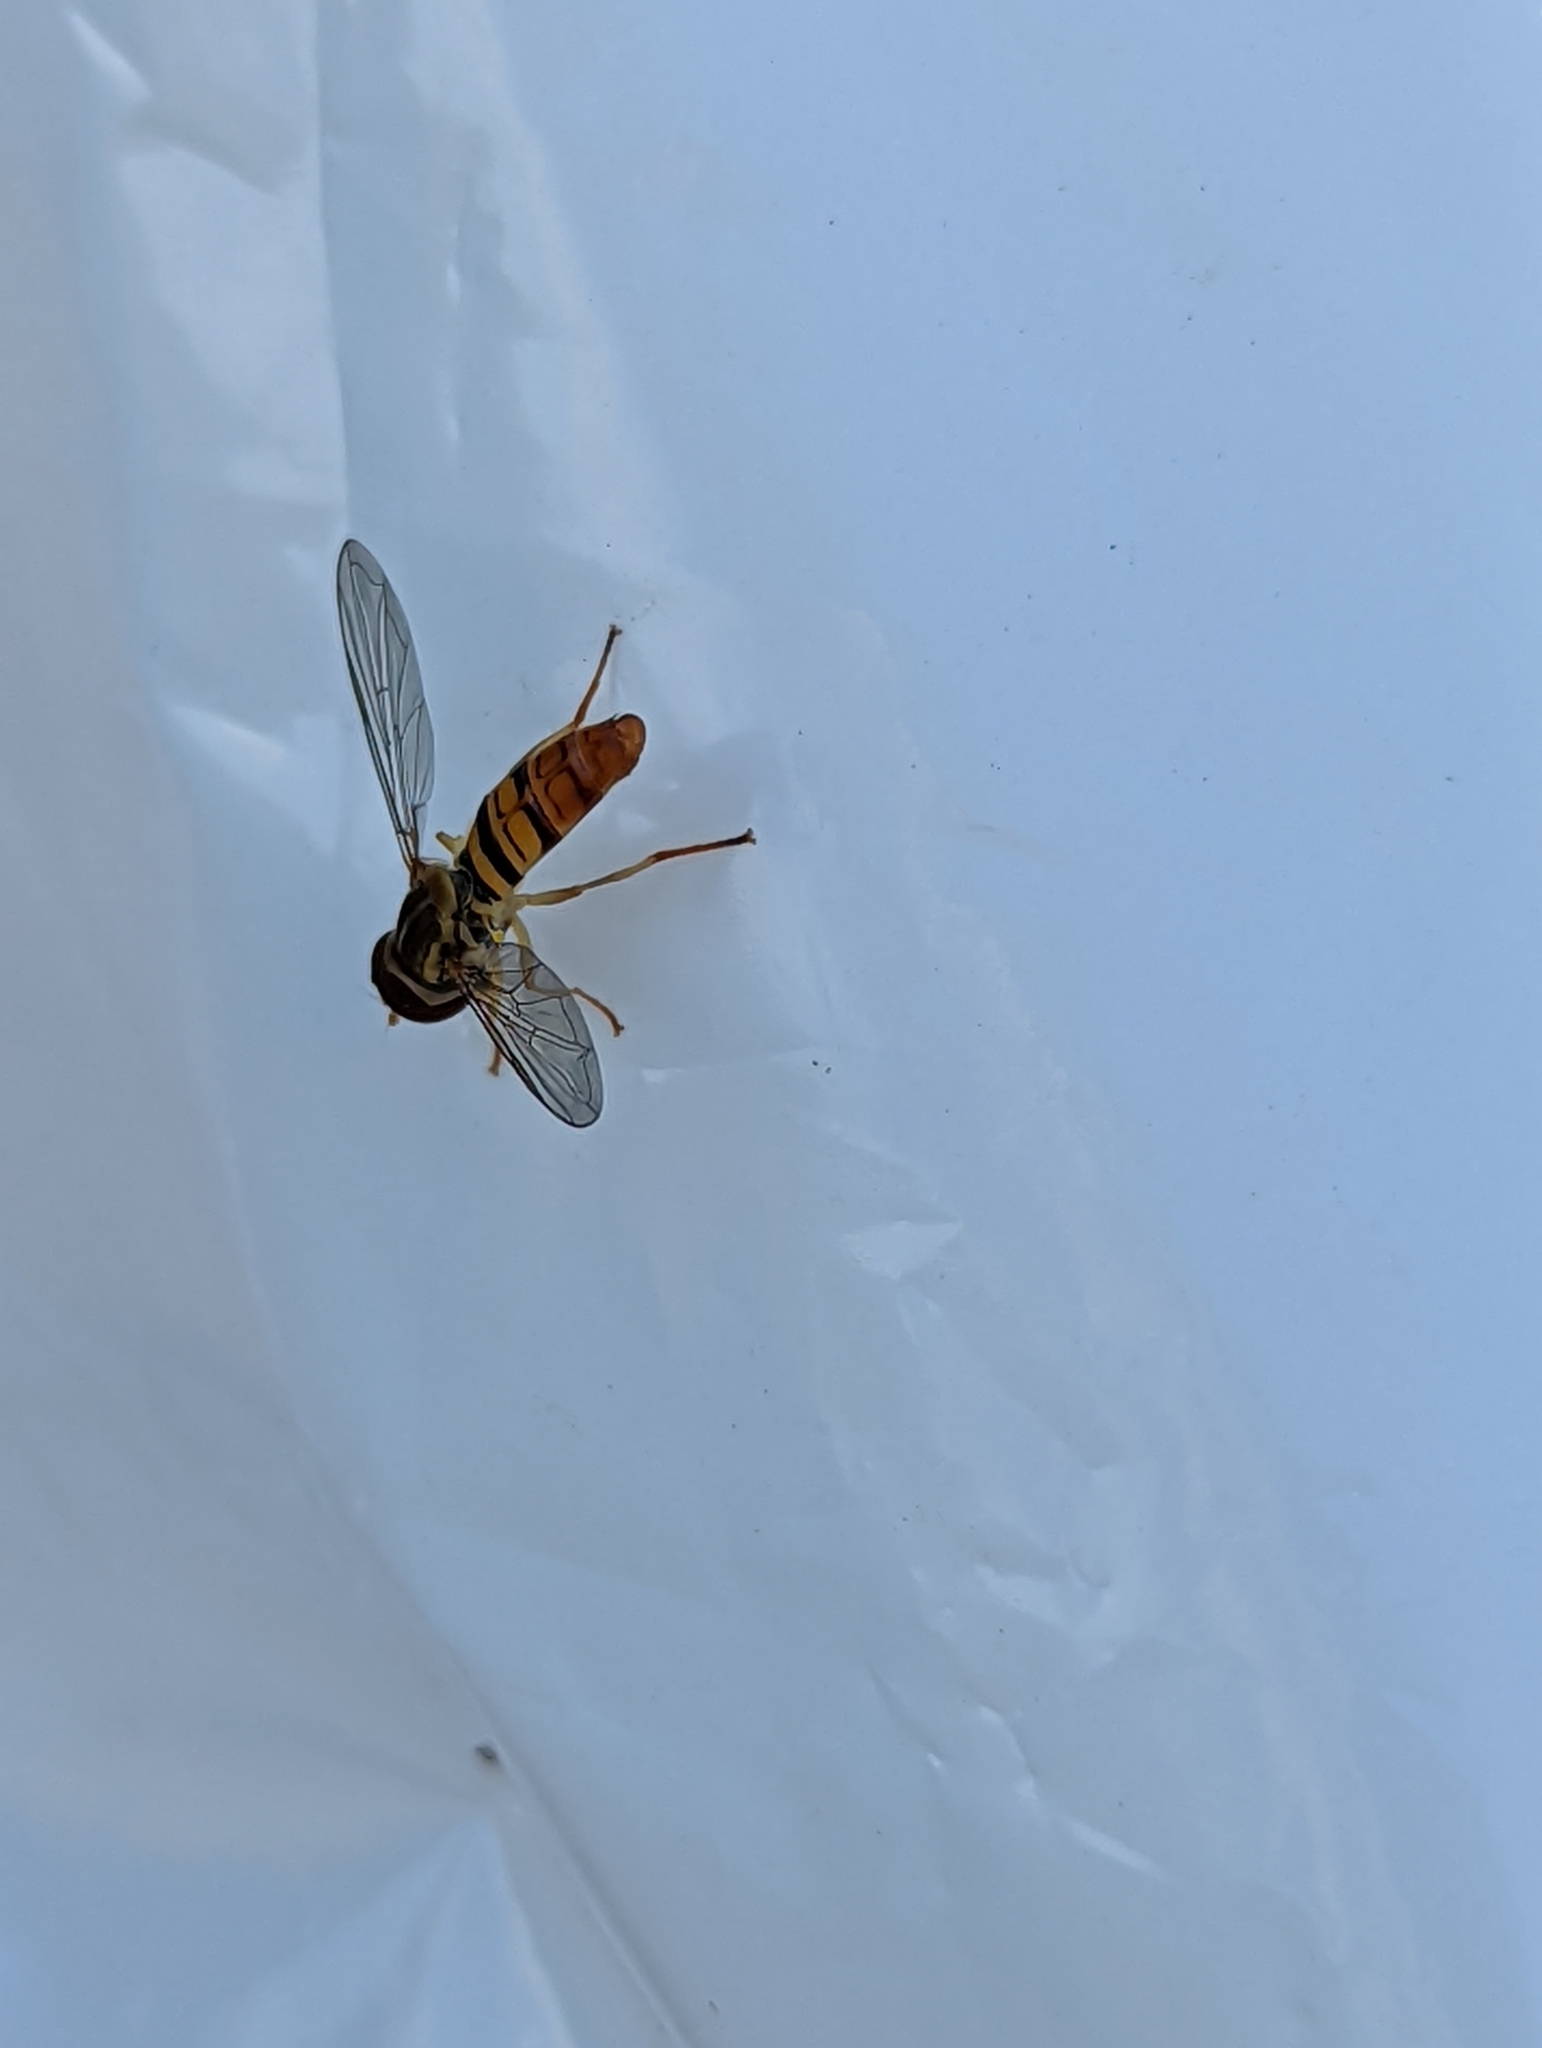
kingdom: Animalia
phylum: Arthropoda
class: Insecta
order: Diptera
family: Syrphidae
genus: Toxomerus
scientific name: Toxomerus politus
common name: Maize calligrapher
